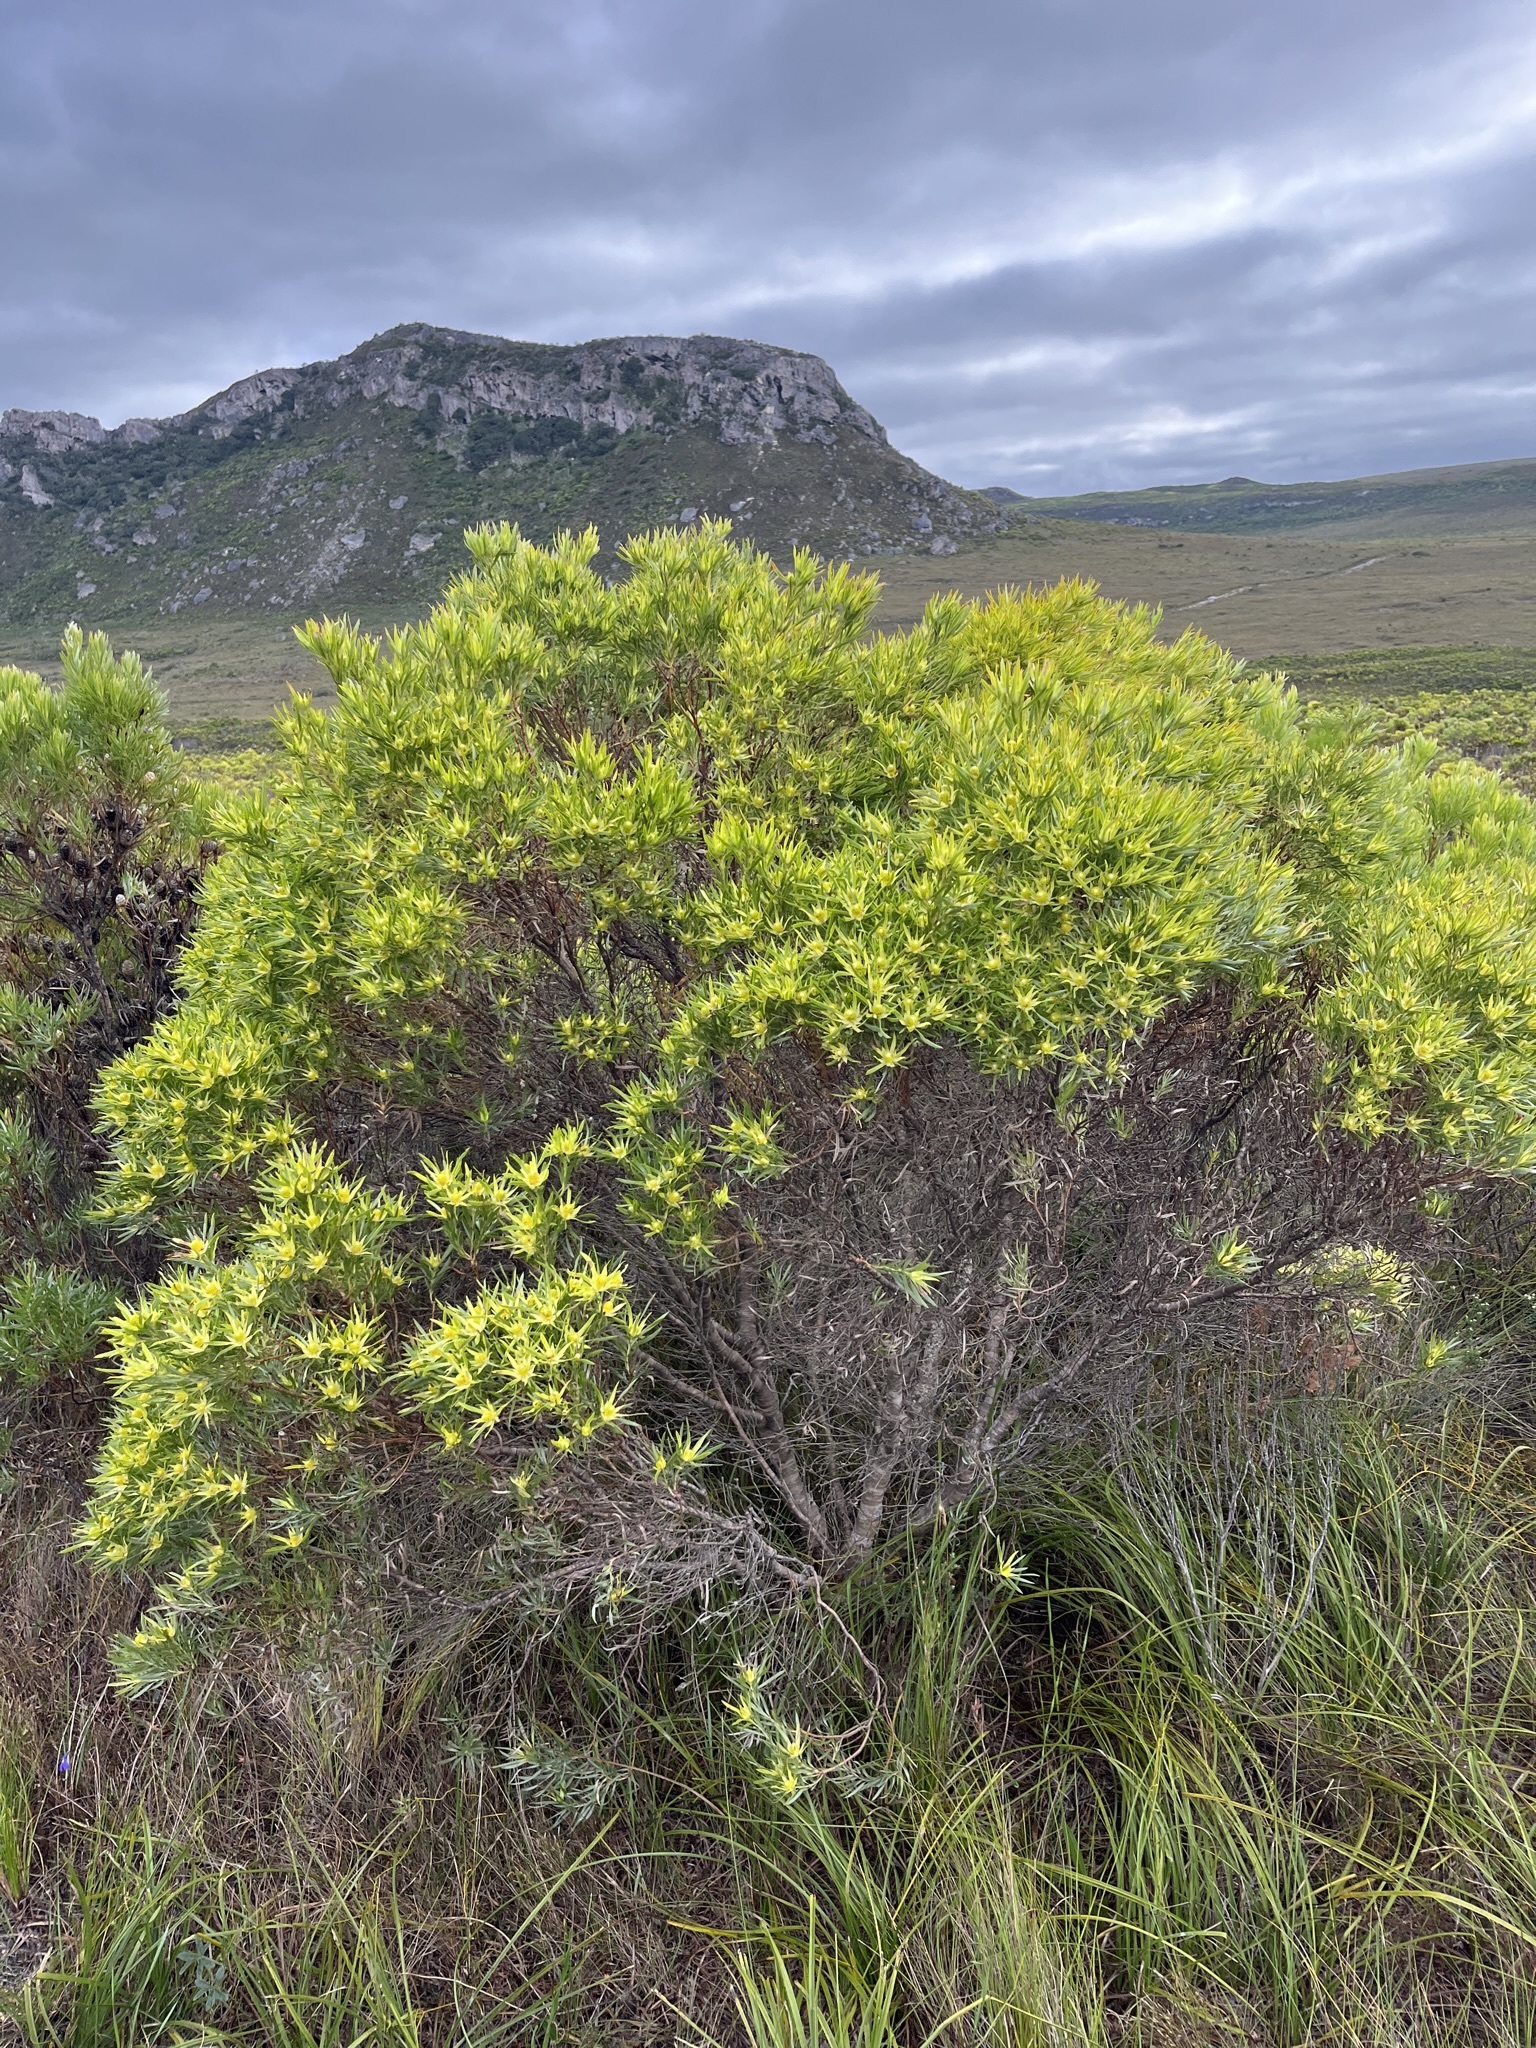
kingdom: Plantae
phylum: Tracheophyta
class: Magnoliopsida
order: Proteales
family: Proteaceae
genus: Leucadendron
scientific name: Leucadendron xanthoconus
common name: Sickle-leaf conebush
